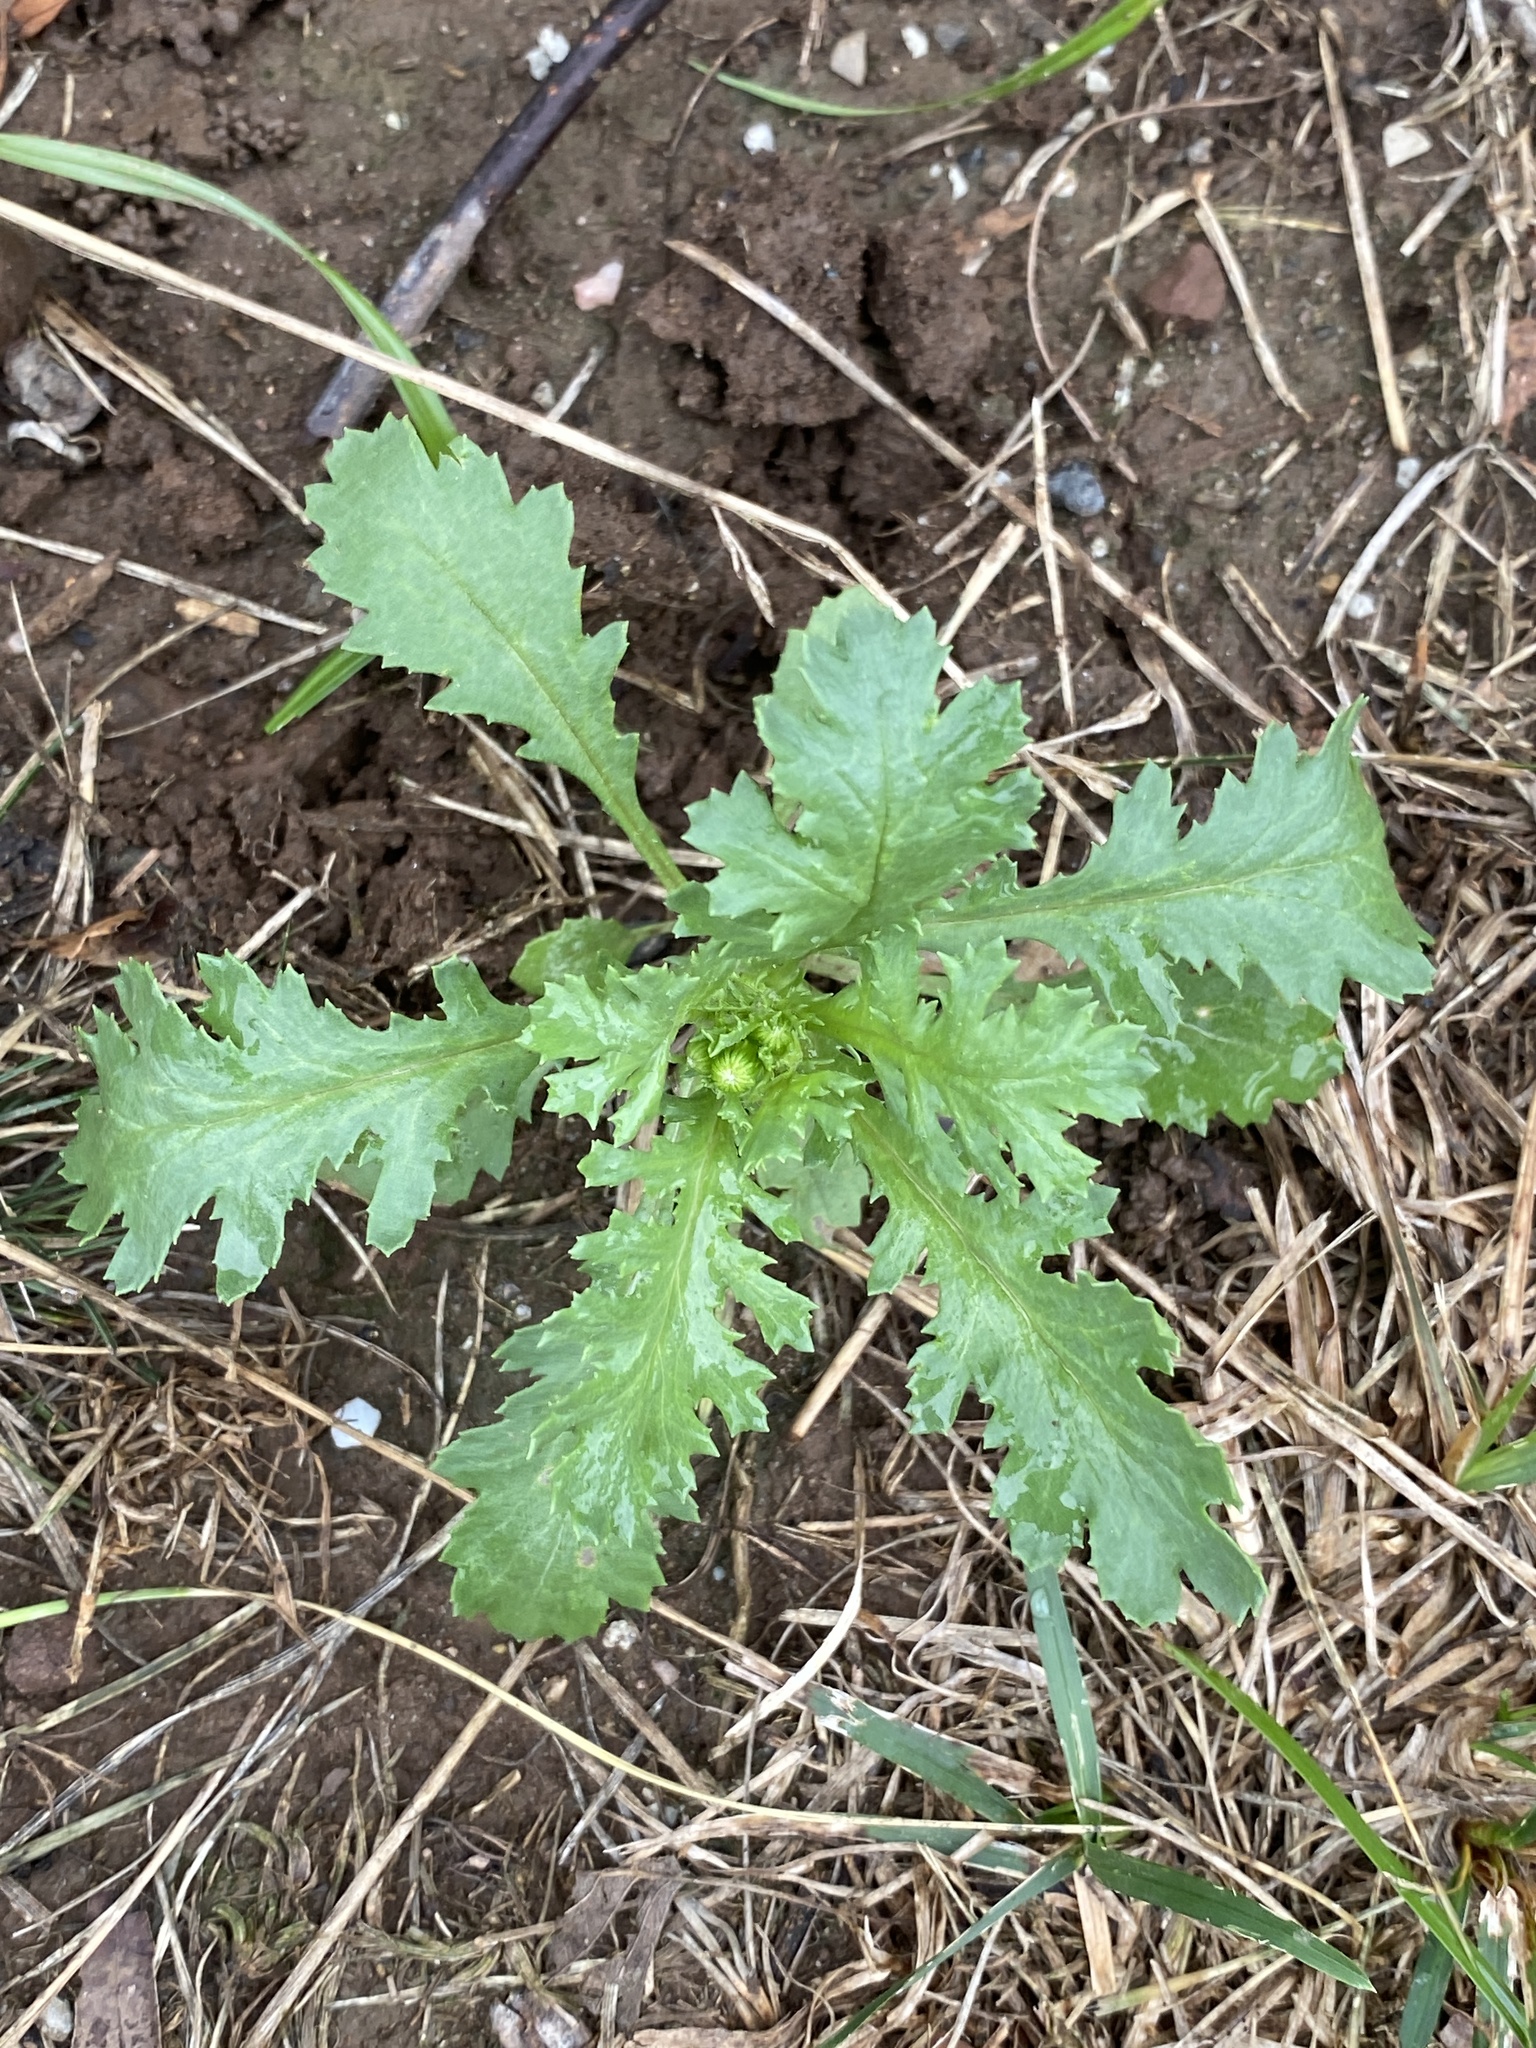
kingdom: Plantae
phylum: Tracheophyta
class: Magnoliopsida
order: Asterales
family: Asteraceae
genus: Senecio
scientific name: Senecio vulgaris
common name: Old-man-in-the-spring
